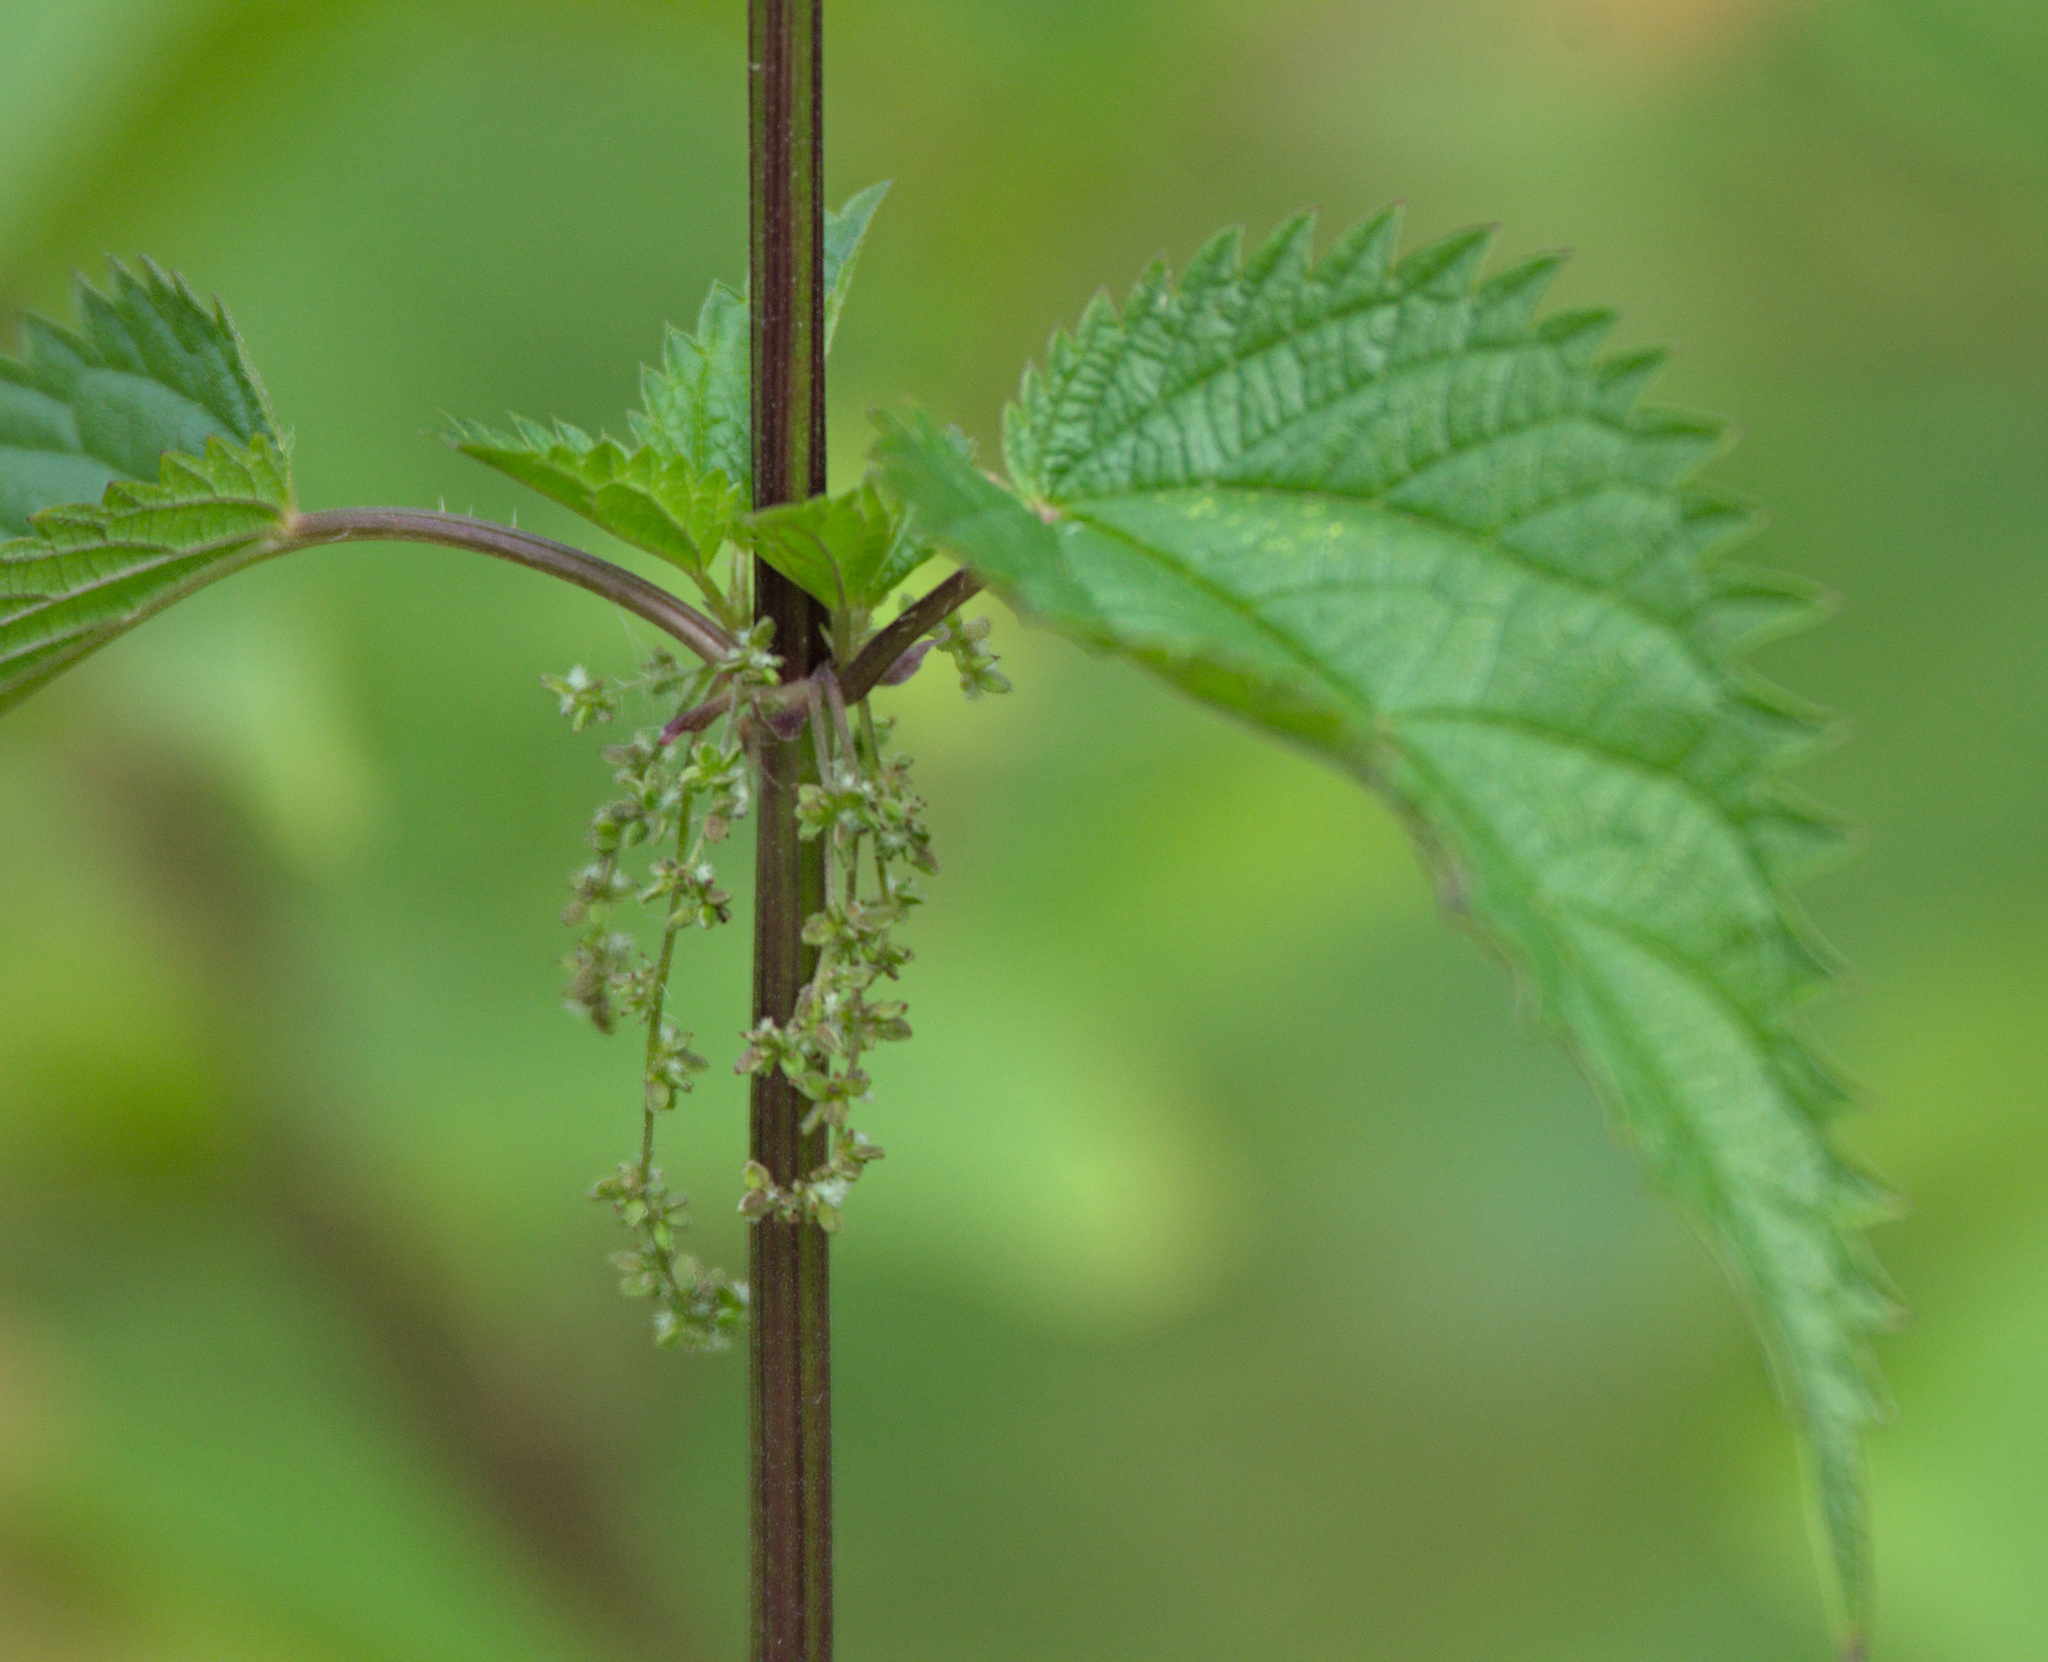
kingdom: Plantae
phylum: Tracheophyta
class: Magnoliopsida
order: Rosales
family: Urticaceae
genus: Urtica
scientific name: Urtica dioica
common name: Common nettle
